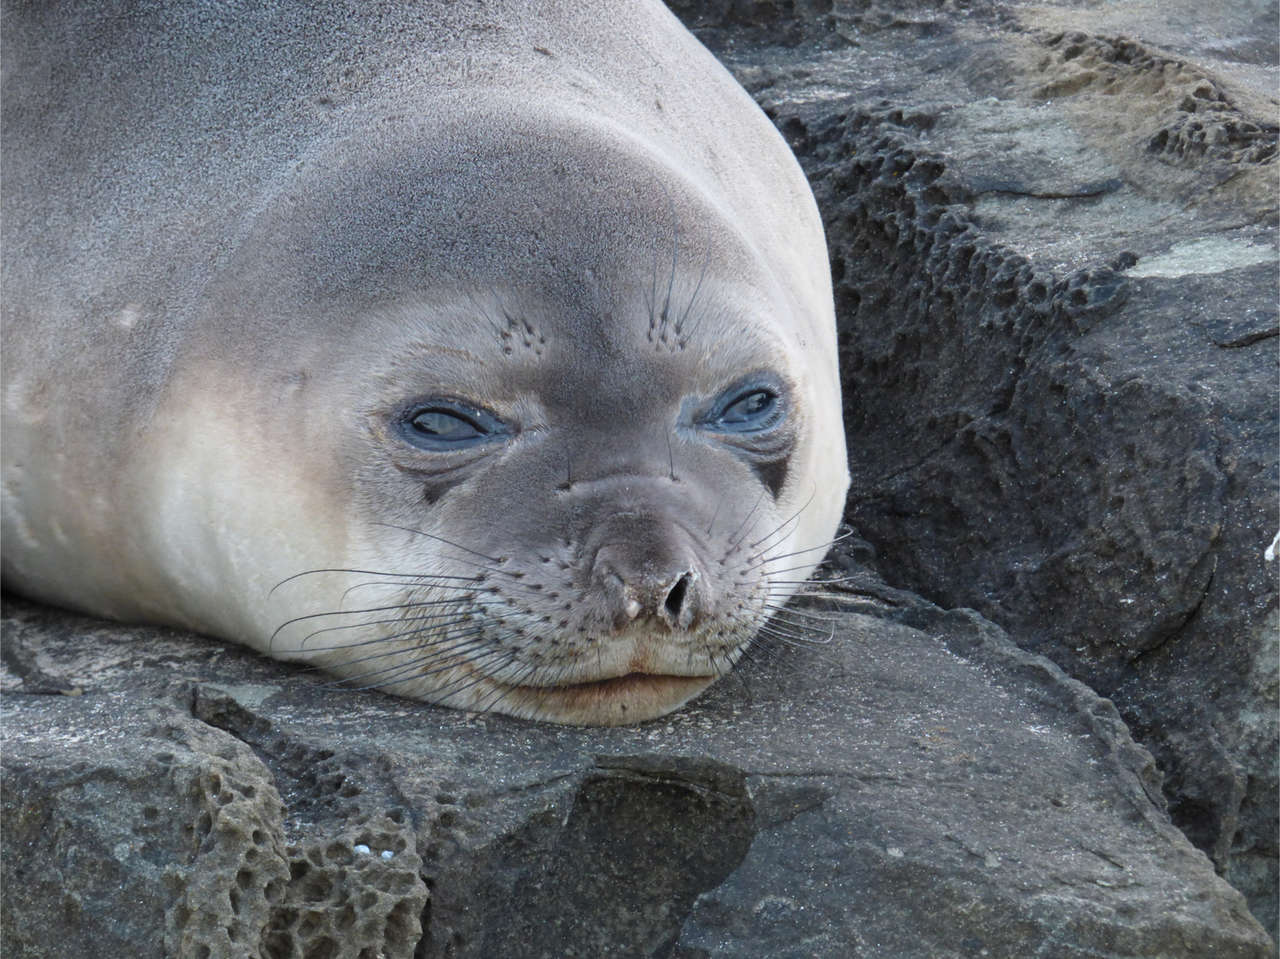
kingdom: Animalia
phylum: Chordata
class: Mammalia
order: Carnivora
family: Phocidae
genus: Mirounga
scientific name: Mirounga leonina
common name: Southern elephant seal
